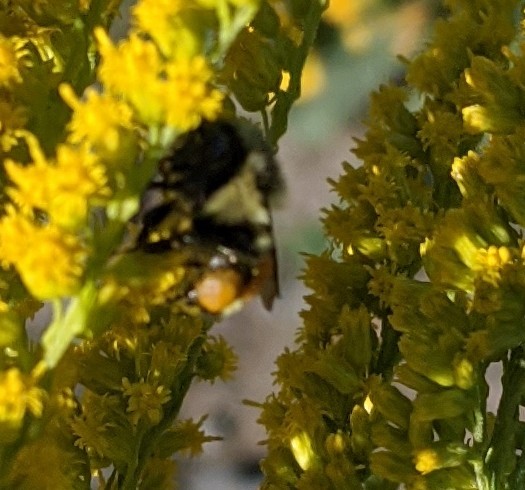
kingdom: Animalia
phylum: Arthropoda
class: Insecta
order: Hymenoptera
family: Apidae
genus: Bombus
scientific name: Bombus ternarius
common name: Tri-colored bumble bee
